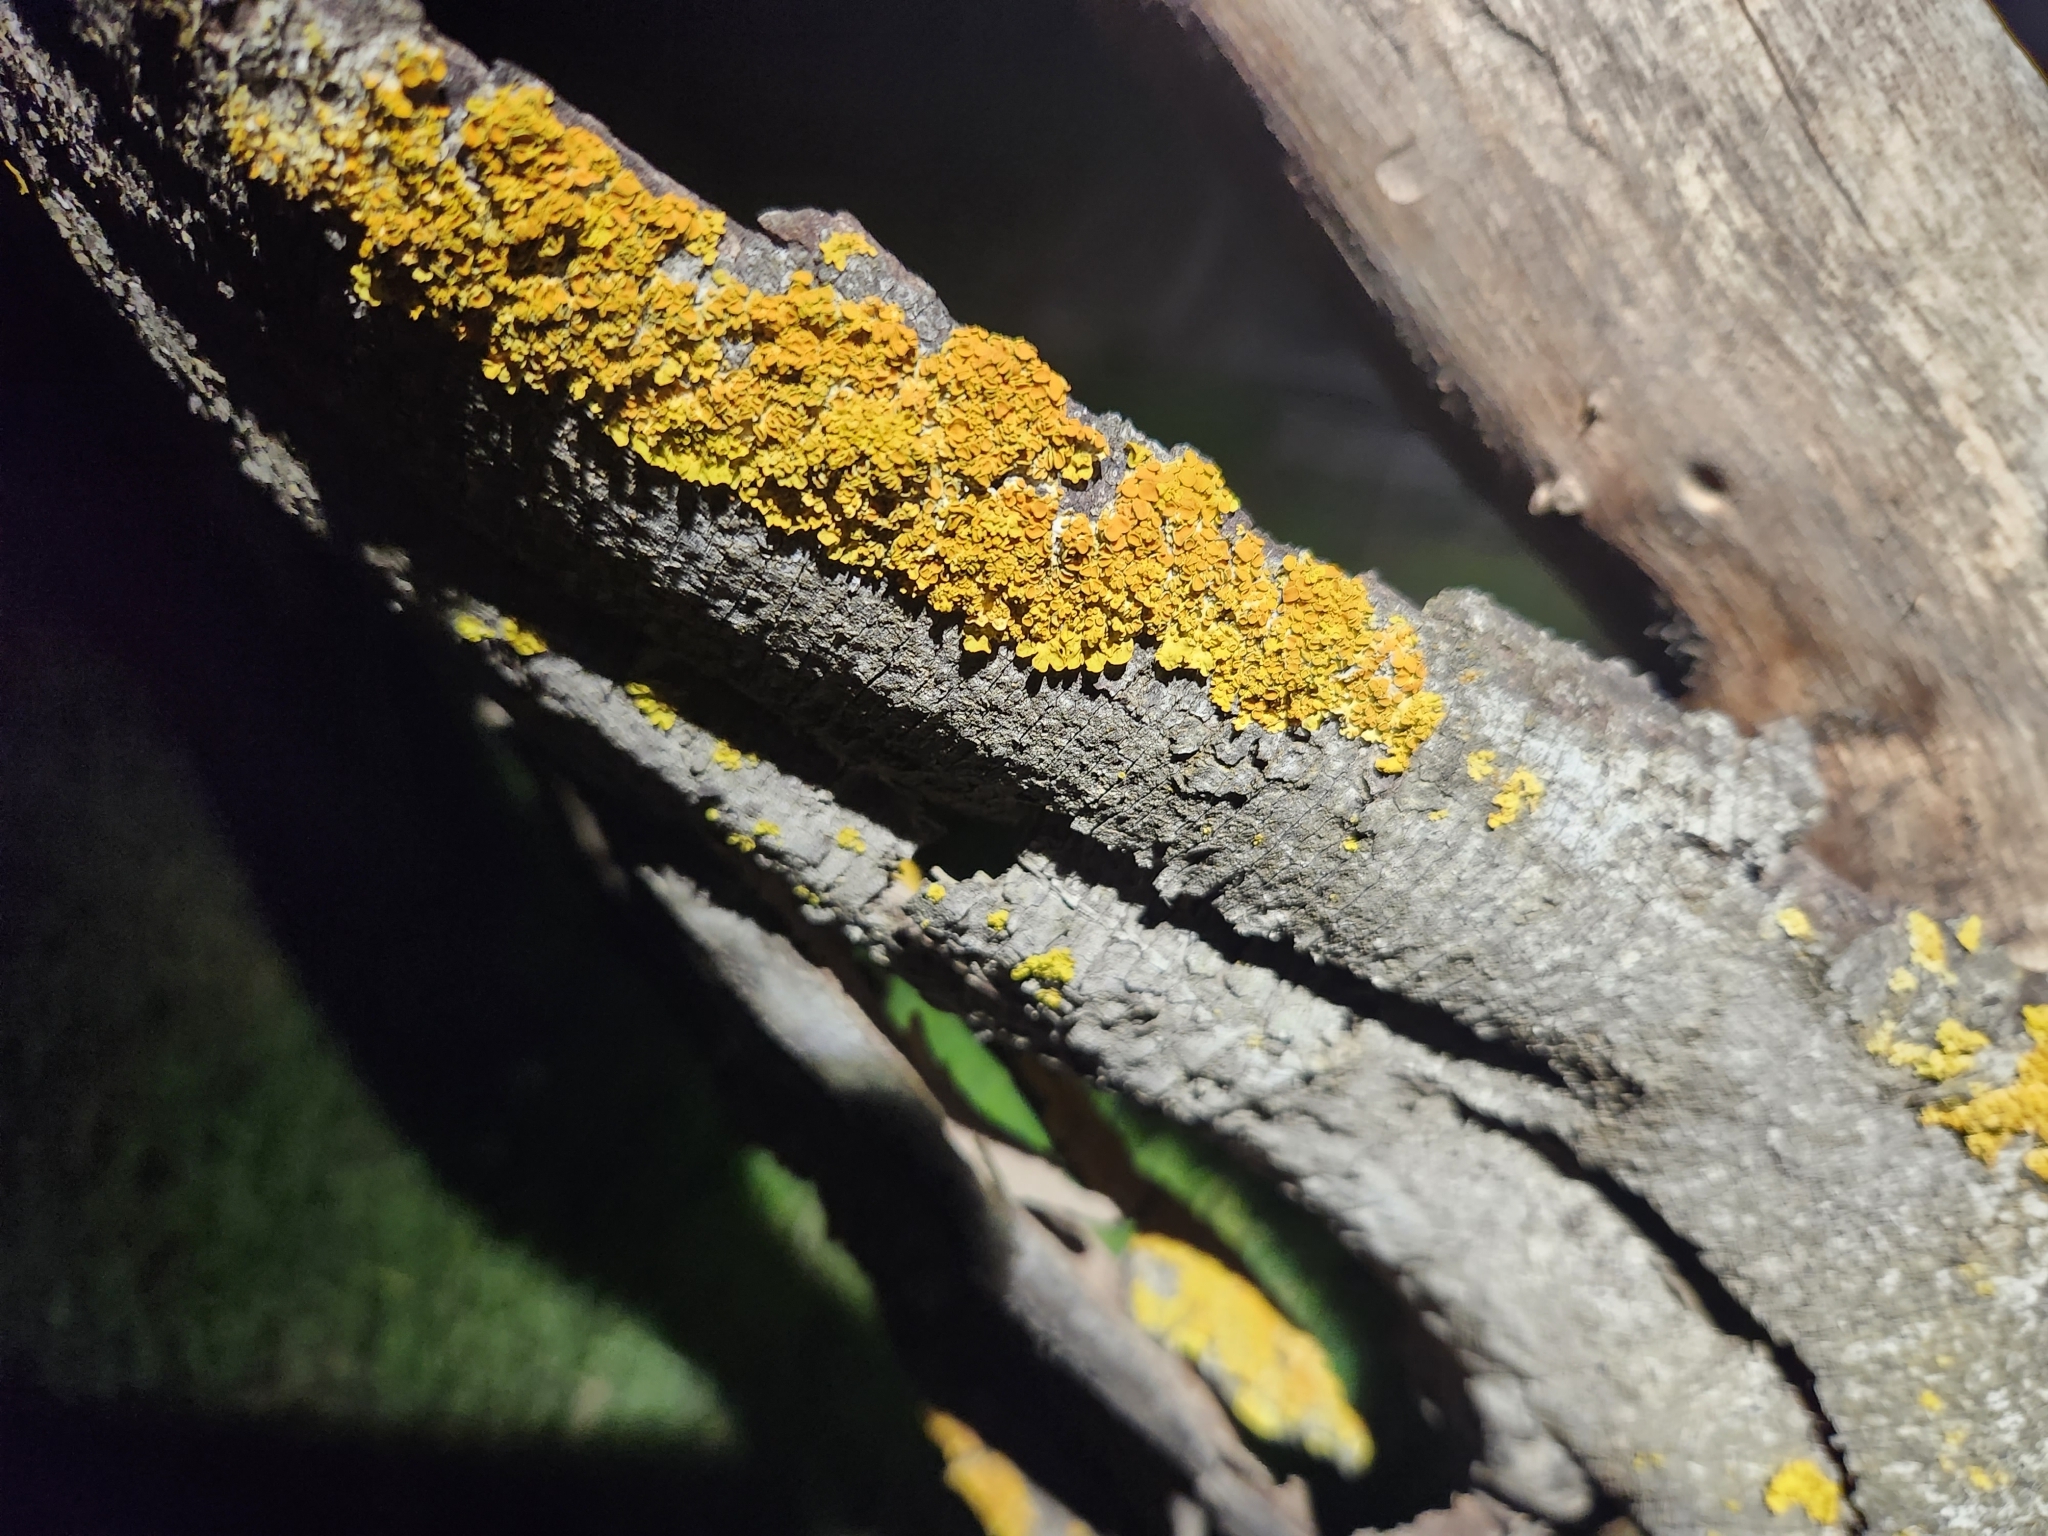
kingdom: Fungi
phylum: Ascomycota
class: Lecanoromycetes
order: Teloschistales
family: Teloschistaceae
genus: Xanthoria
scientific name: Xanthoria parietina
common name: Common orange lichen
